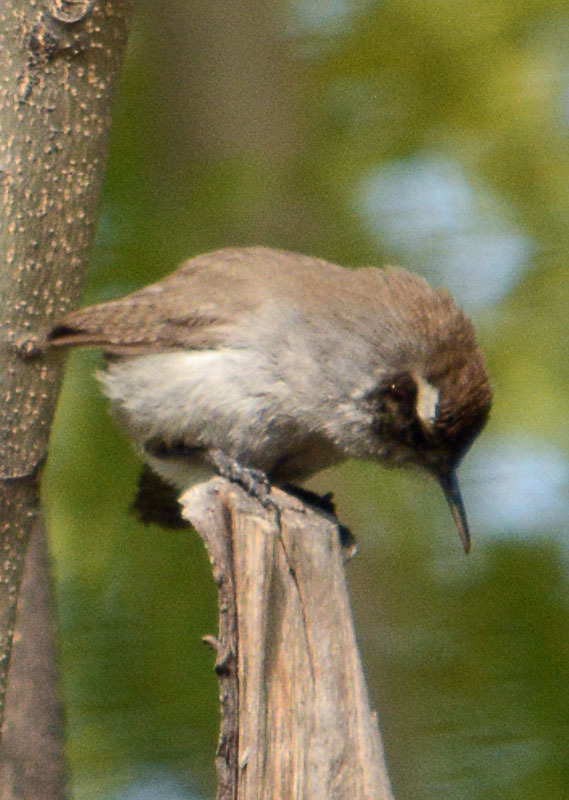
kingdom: Animalia
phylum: Chordata
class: Aves
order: Passeriformes
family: Troglodytidae
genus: Thryomanes
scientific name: Thryomanes bewickii
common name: Bewick's wren
